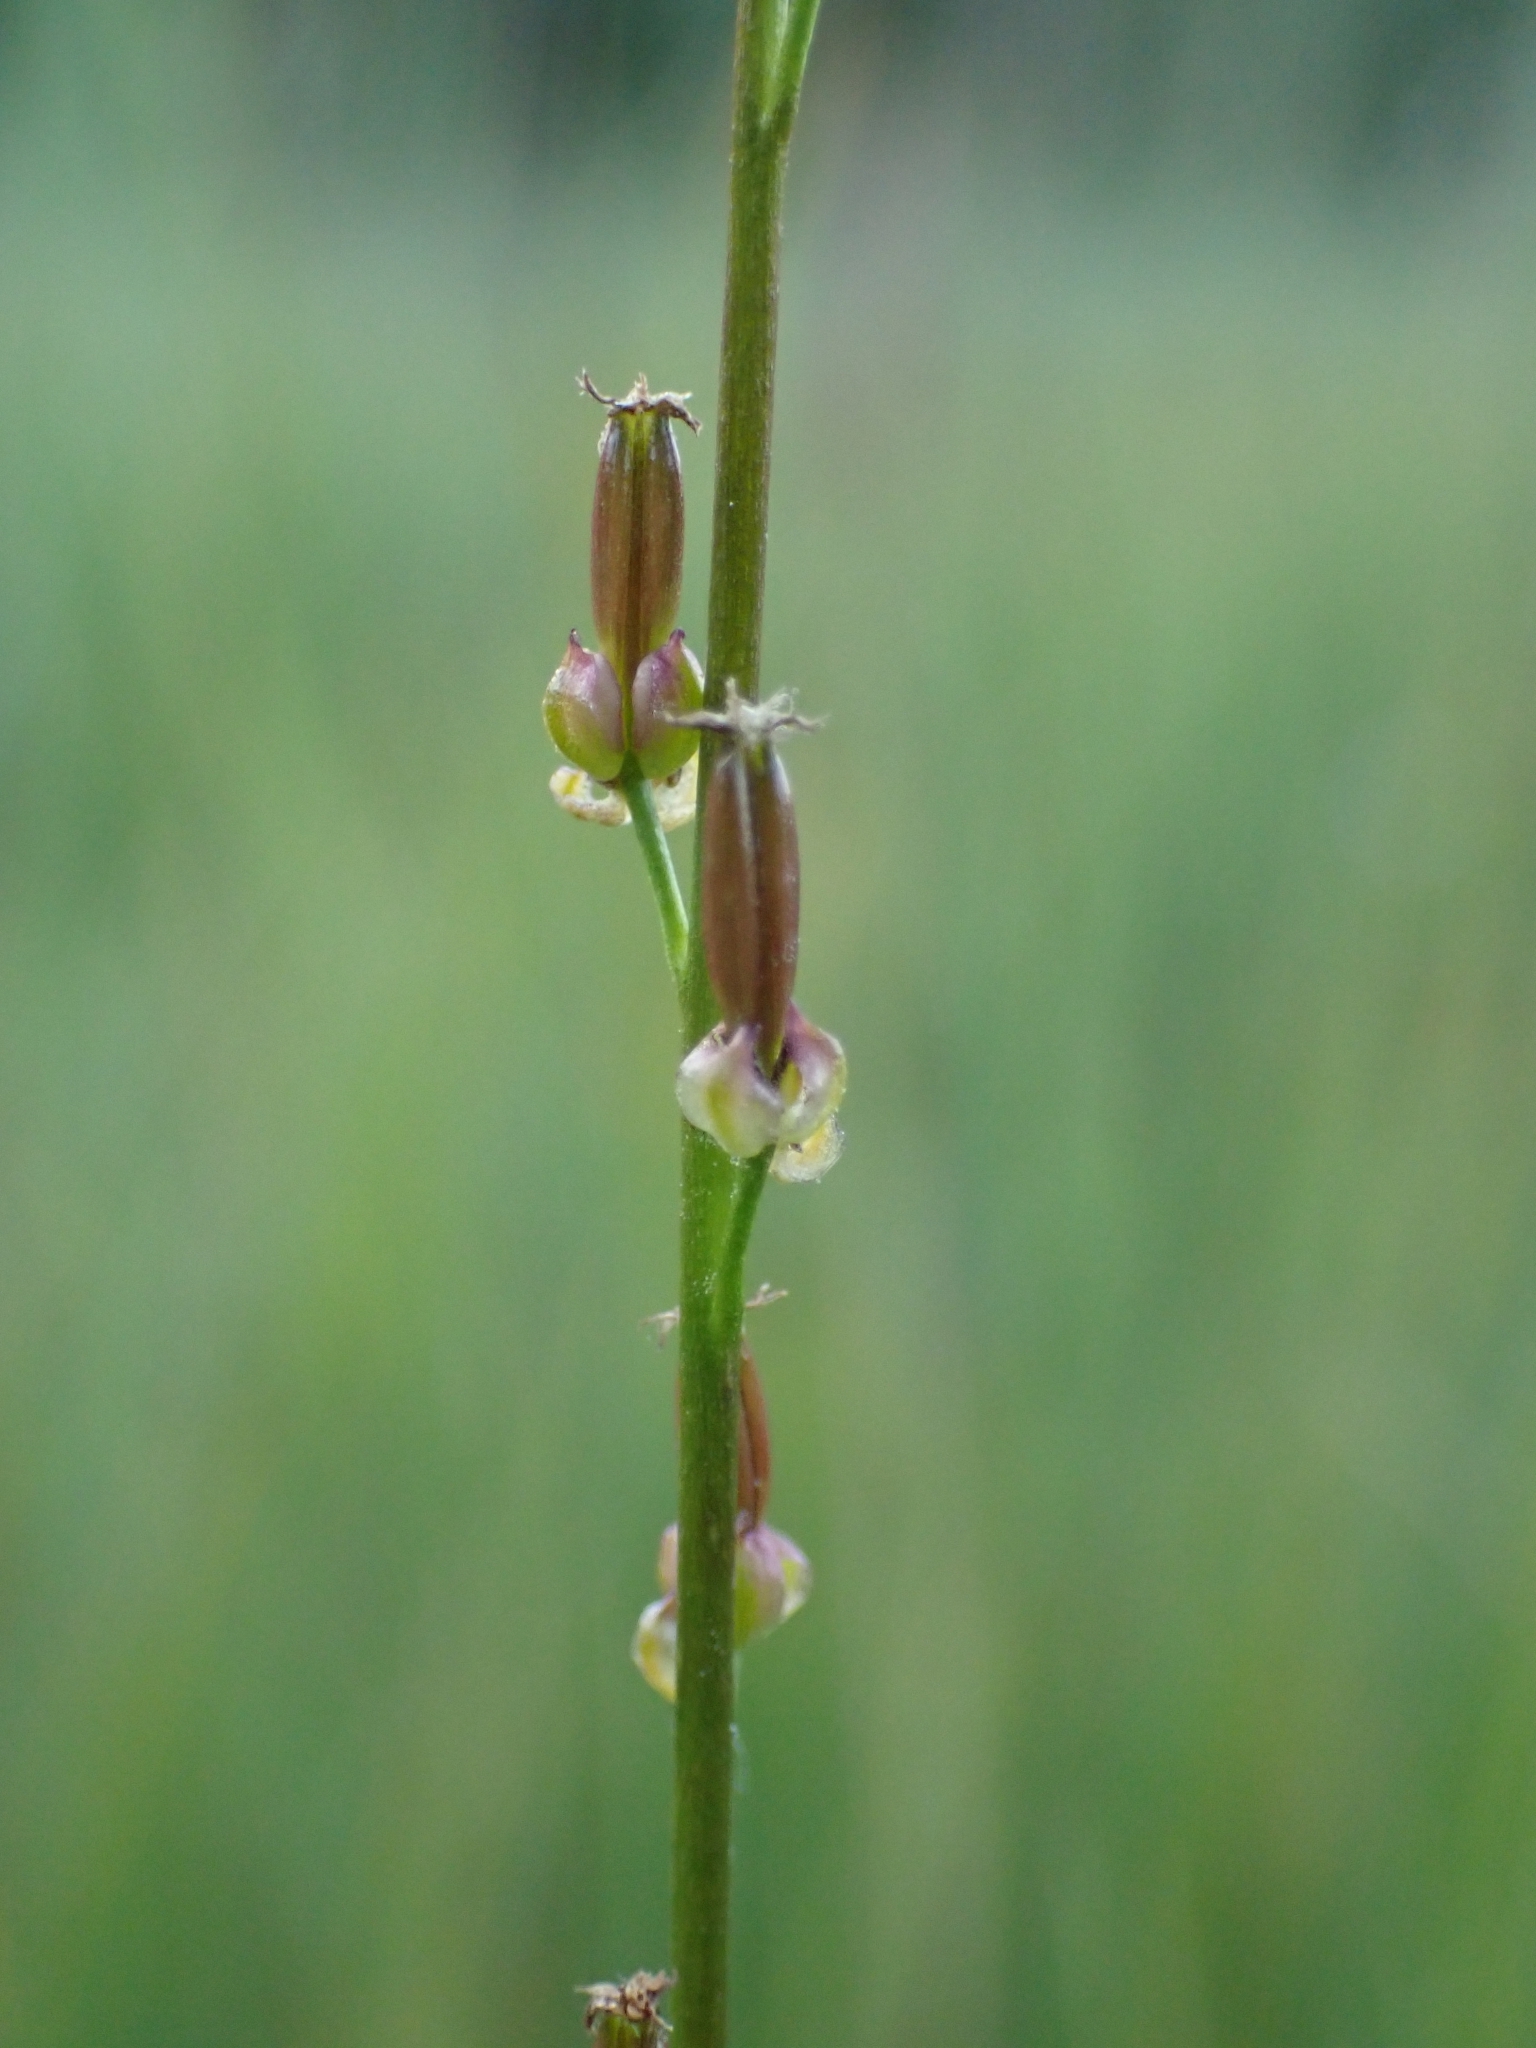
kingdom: Plantae
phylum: Tracheophyta
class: Liliopsida
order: Alismatales
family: Juncaginaceae
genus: Triglochin
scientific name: Triglochin palustris
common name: Marsh arrowgrass
